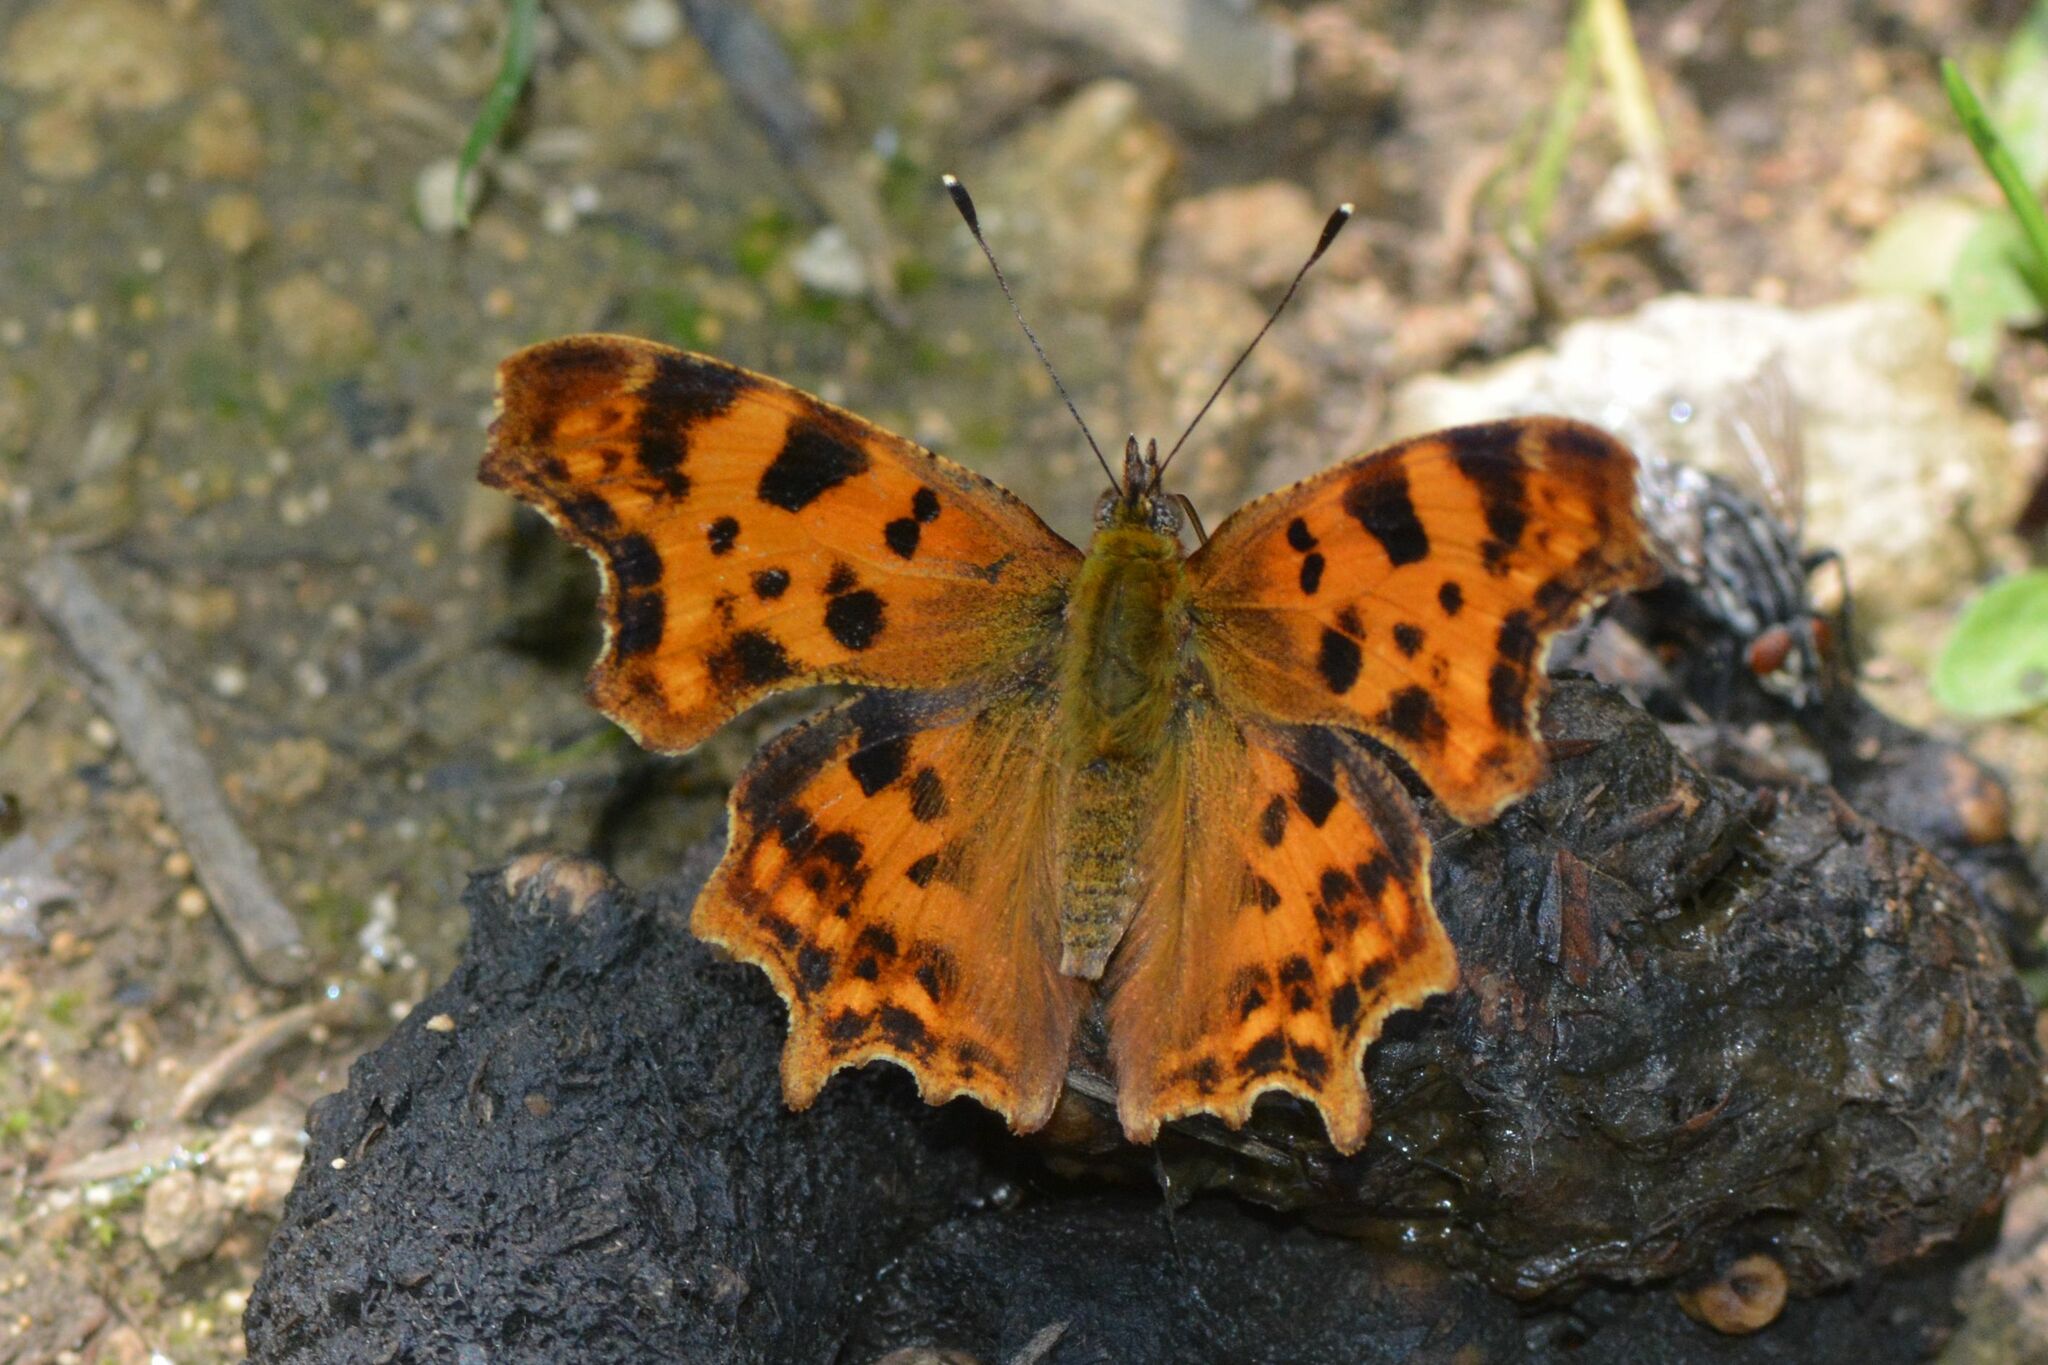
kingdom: Animalia
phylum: Arthropoda
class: Insecta
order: Lepidoptera
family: Nymphalidae
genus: Polygonia
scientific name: Polygonia c-album
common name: Comma
